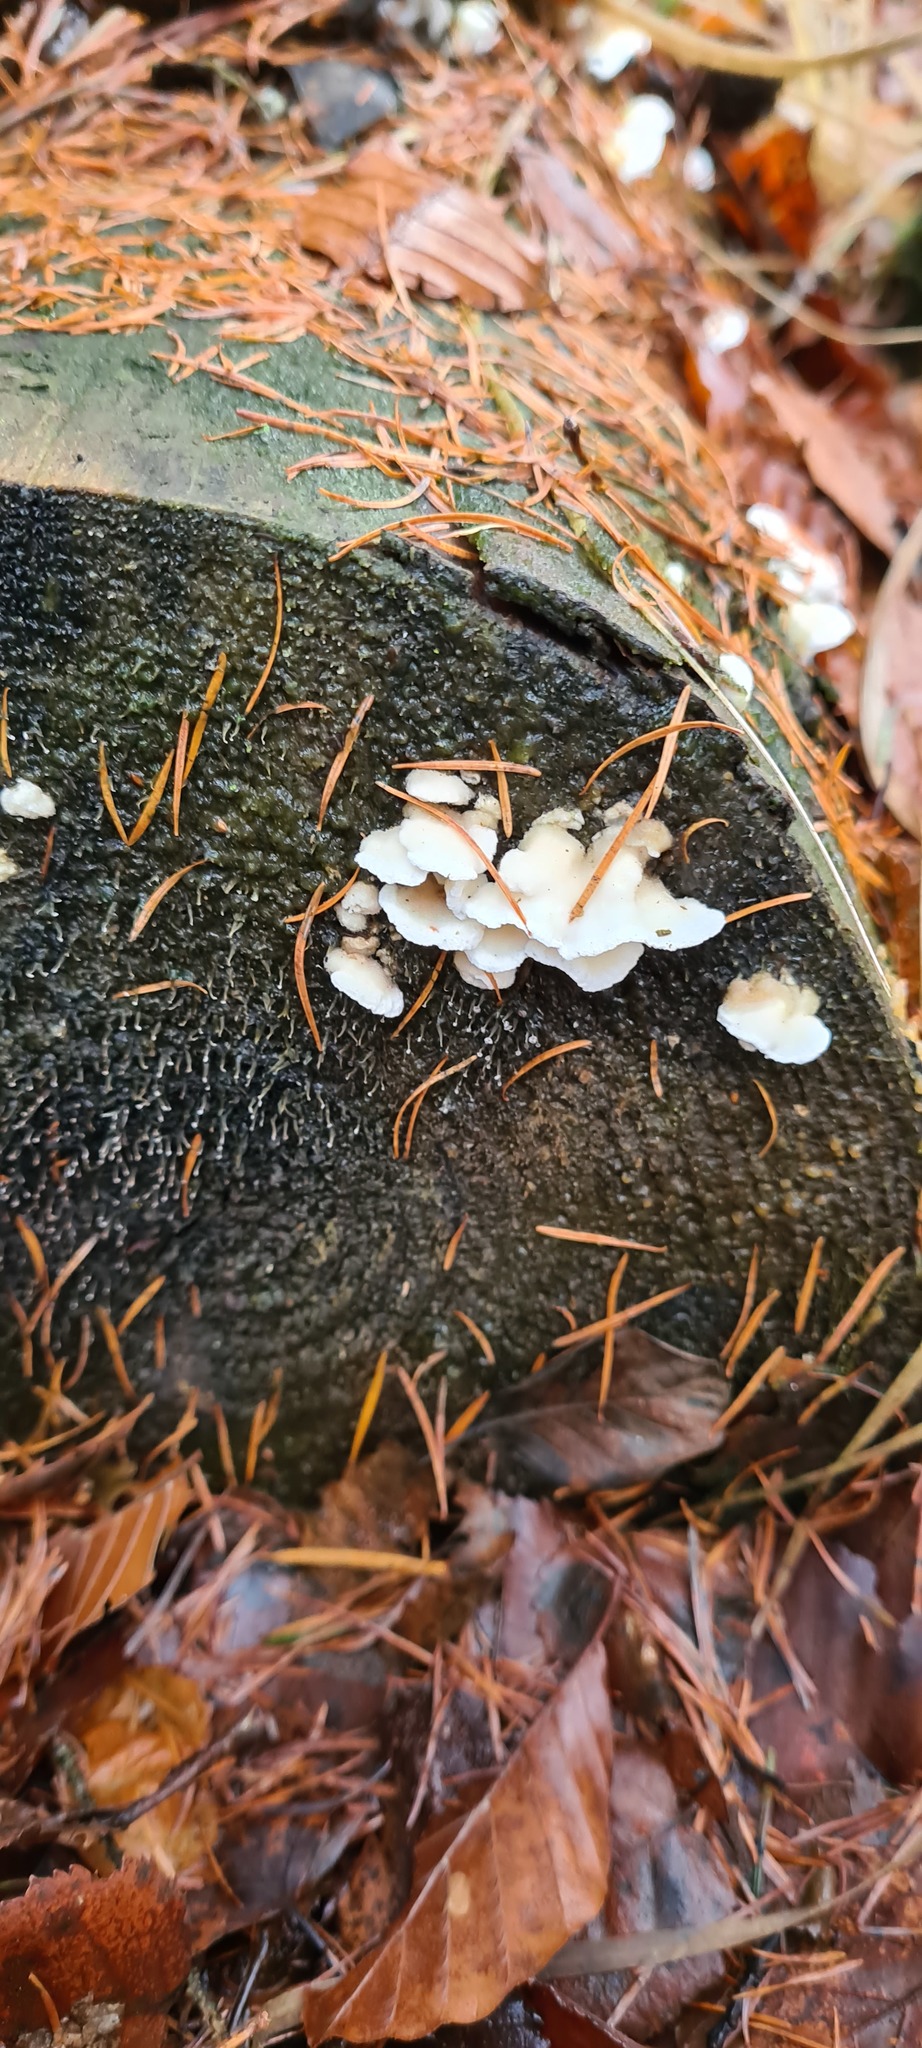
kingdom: Fungi
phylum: Basidiomycota
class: Agaricomycetes
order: Polyporales
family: Incrustoporiaceae
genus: Skeletocutis
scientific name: Skeletocutis amorpha
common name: Rusty crust
